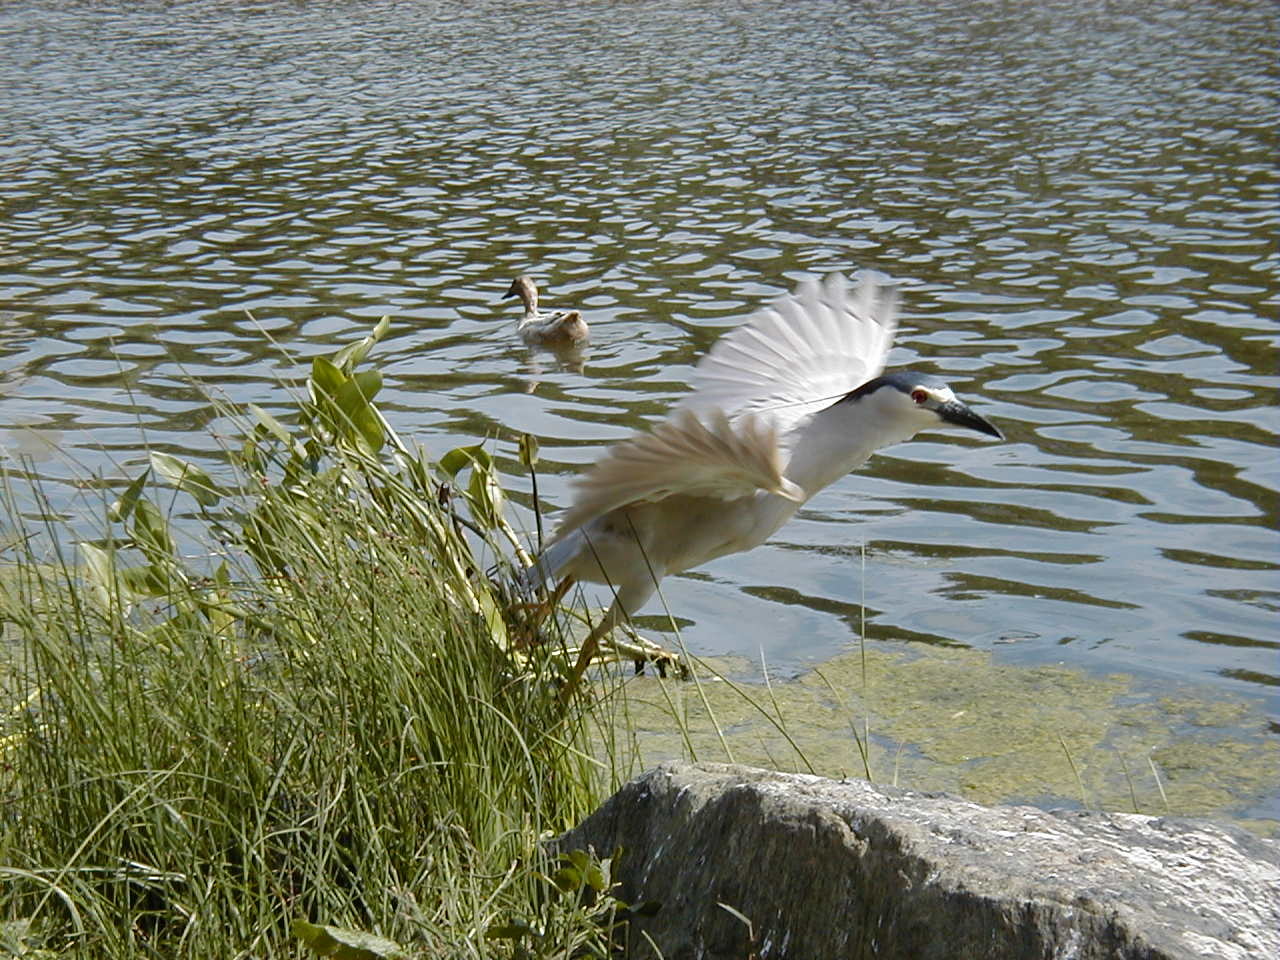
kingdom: Animalia
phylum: Chordata
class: Aves
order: Anseriformes
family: Anatidae
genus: Anas
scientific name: Anas platyrhynchos
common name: Mallard
